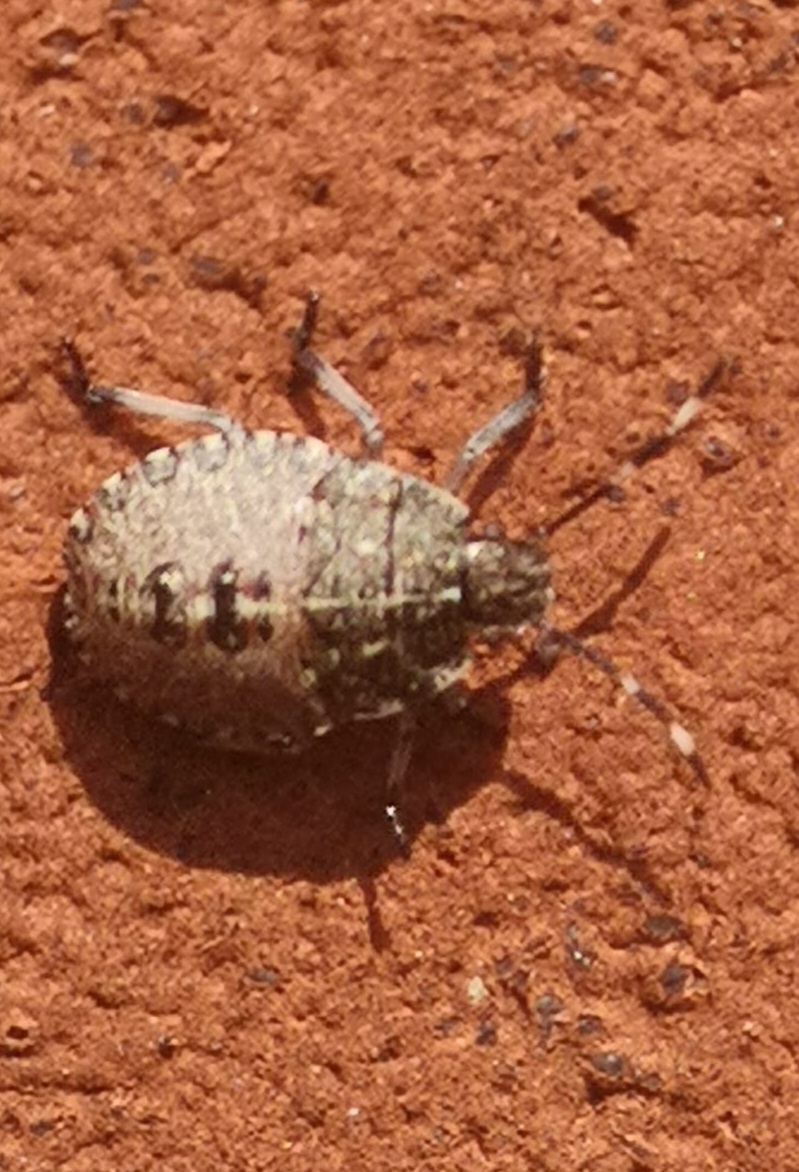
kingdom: Animalia
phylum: Arthropoda
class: Insecta
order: Hemiptera
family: Pentatomidae
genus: Rhaphigaster
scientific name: Rhaphigaster nebulosa
